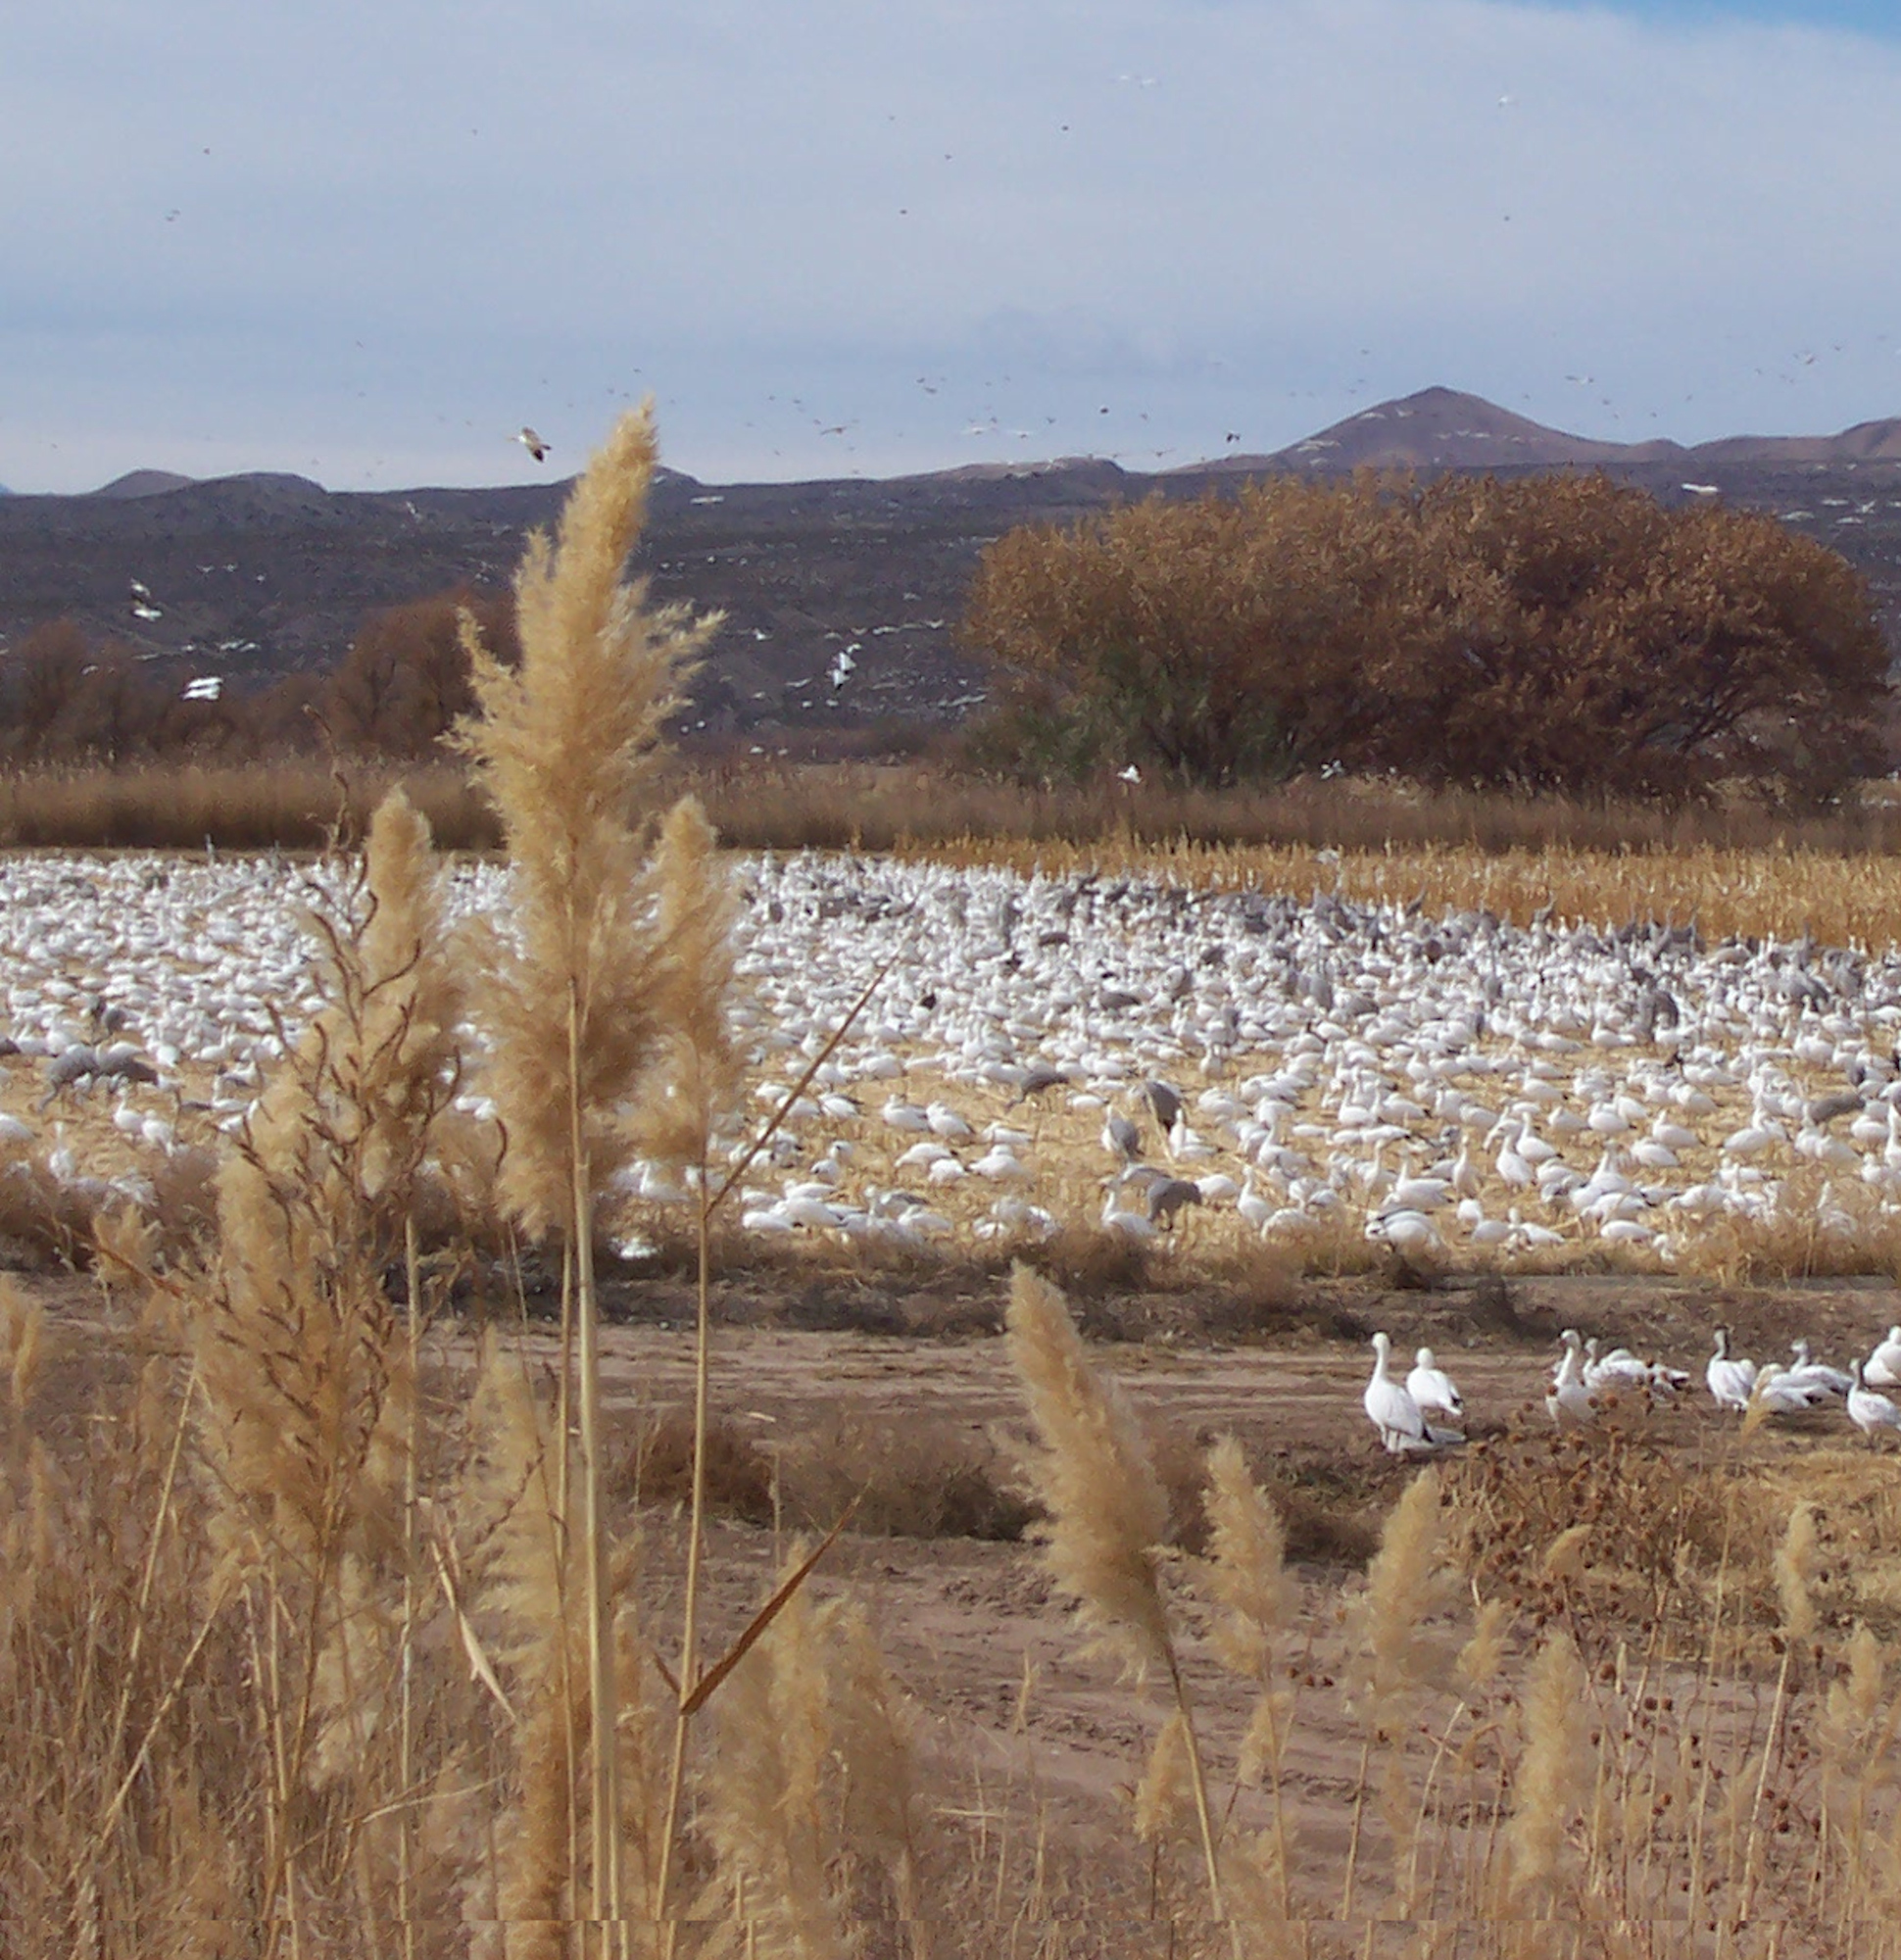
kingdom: Plantae
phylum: Tracheophyta
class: Liliopsida
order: Poales
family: Poaceae
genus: Phragmites
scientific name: Phragmites australis
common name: Common reed
